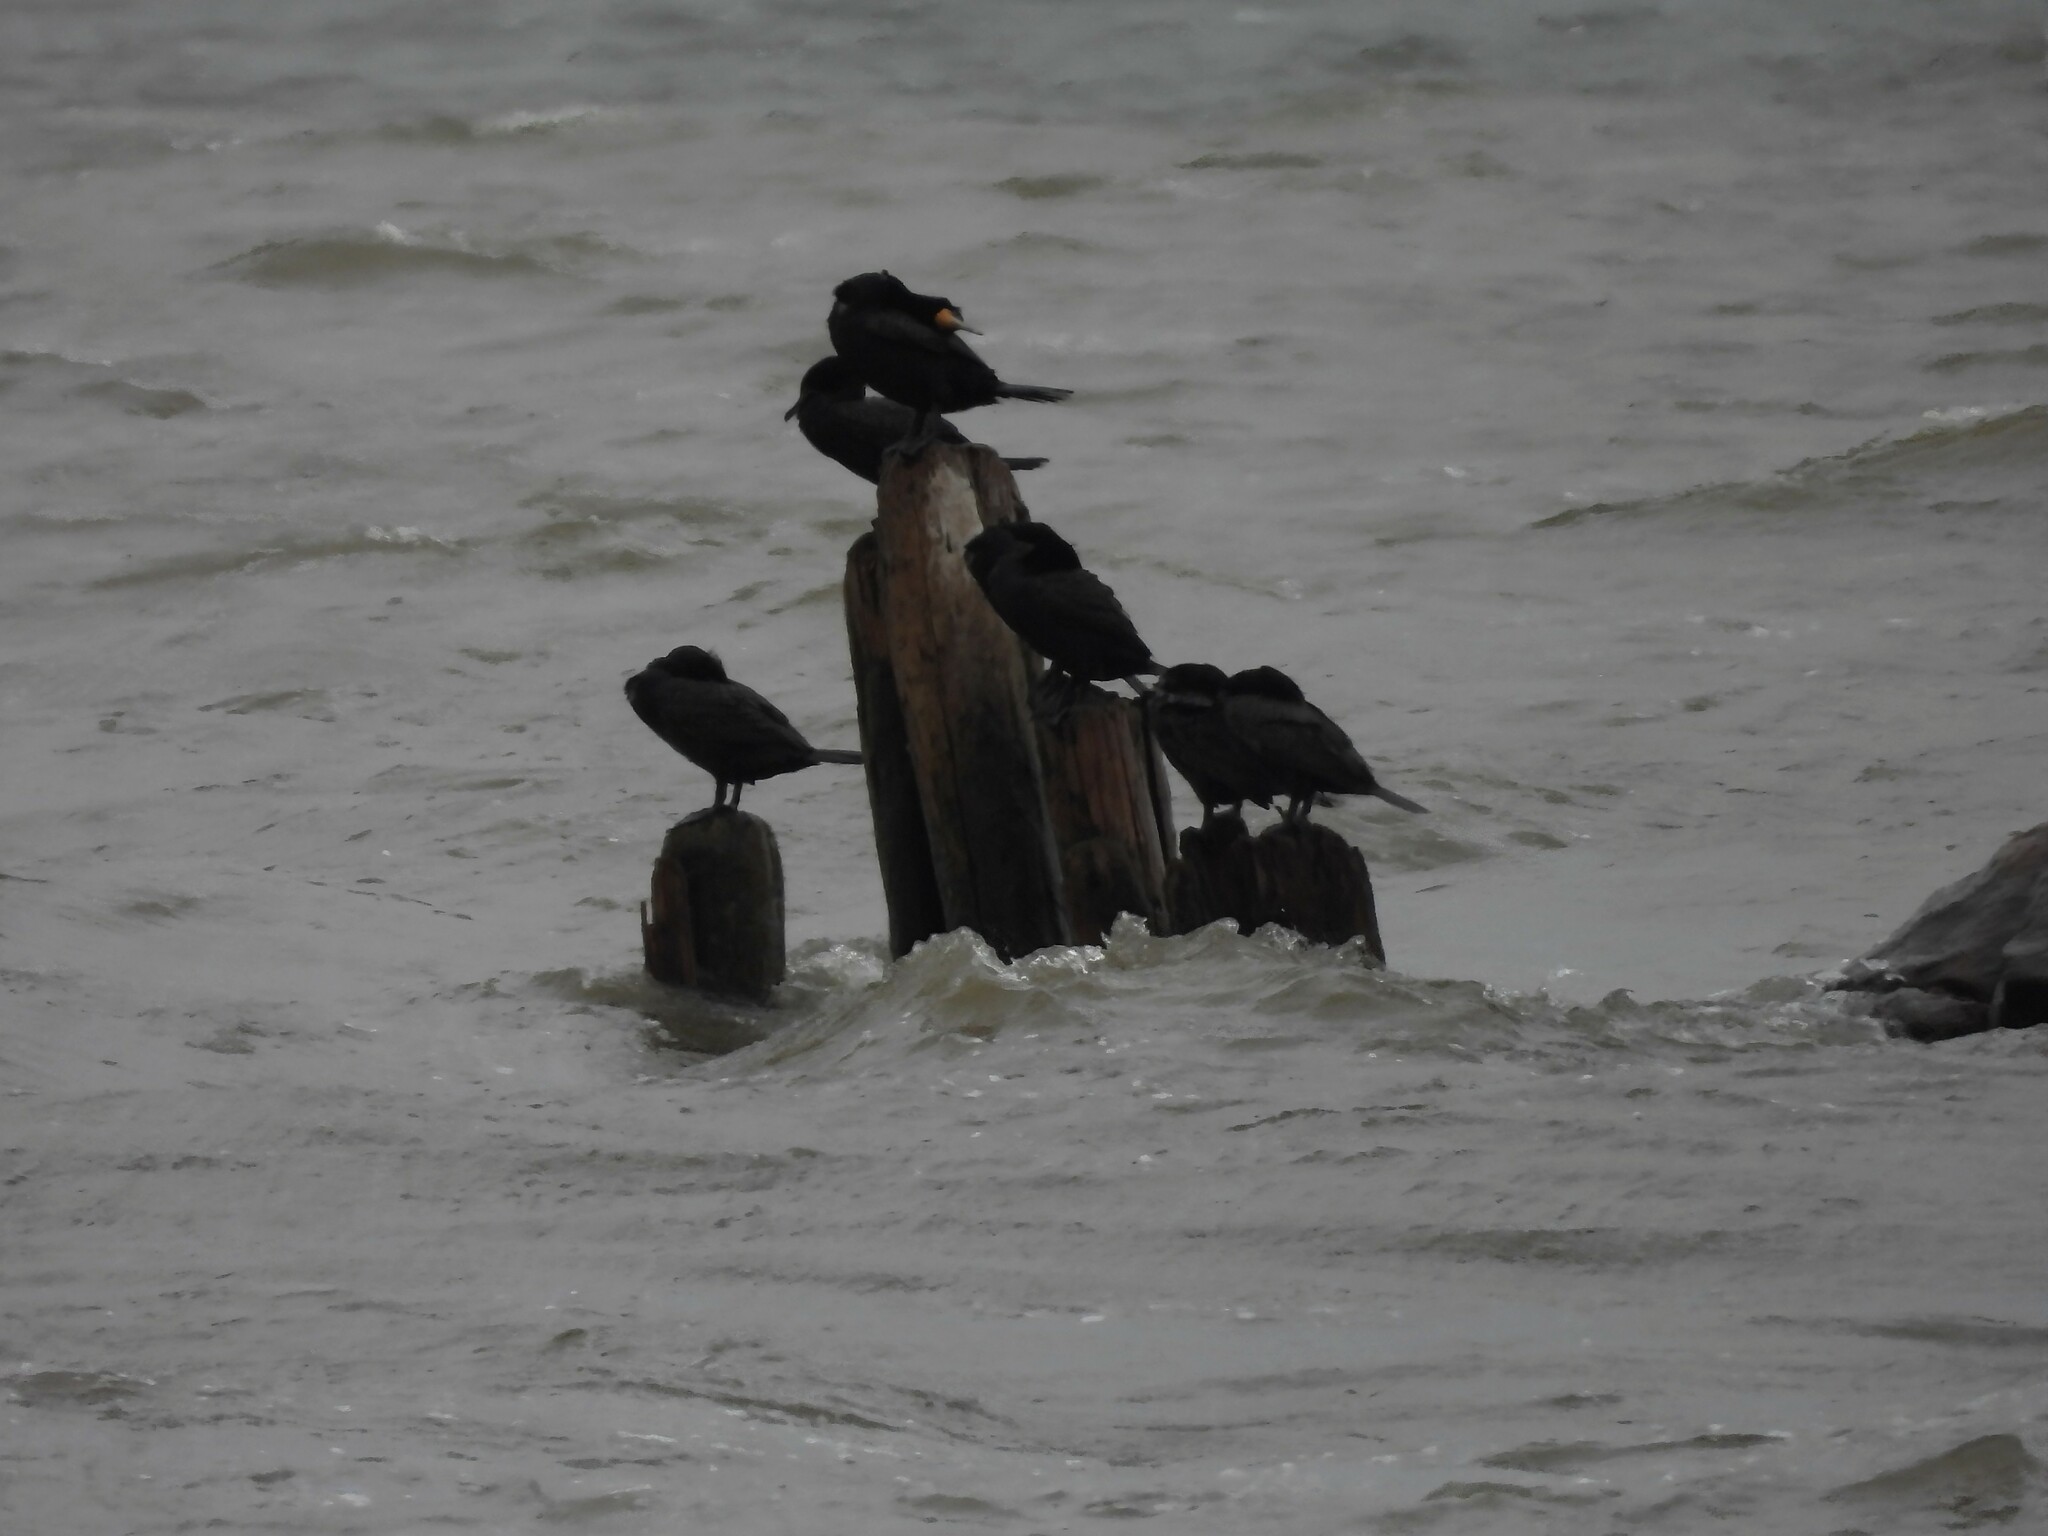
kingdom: Animalia
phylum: Chordata
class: Aves
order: Suliformes
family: Phalacrocoracidae
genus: Phalacrocorax
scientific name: Phalacrocorax auritus
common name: Double-crested cormorant
